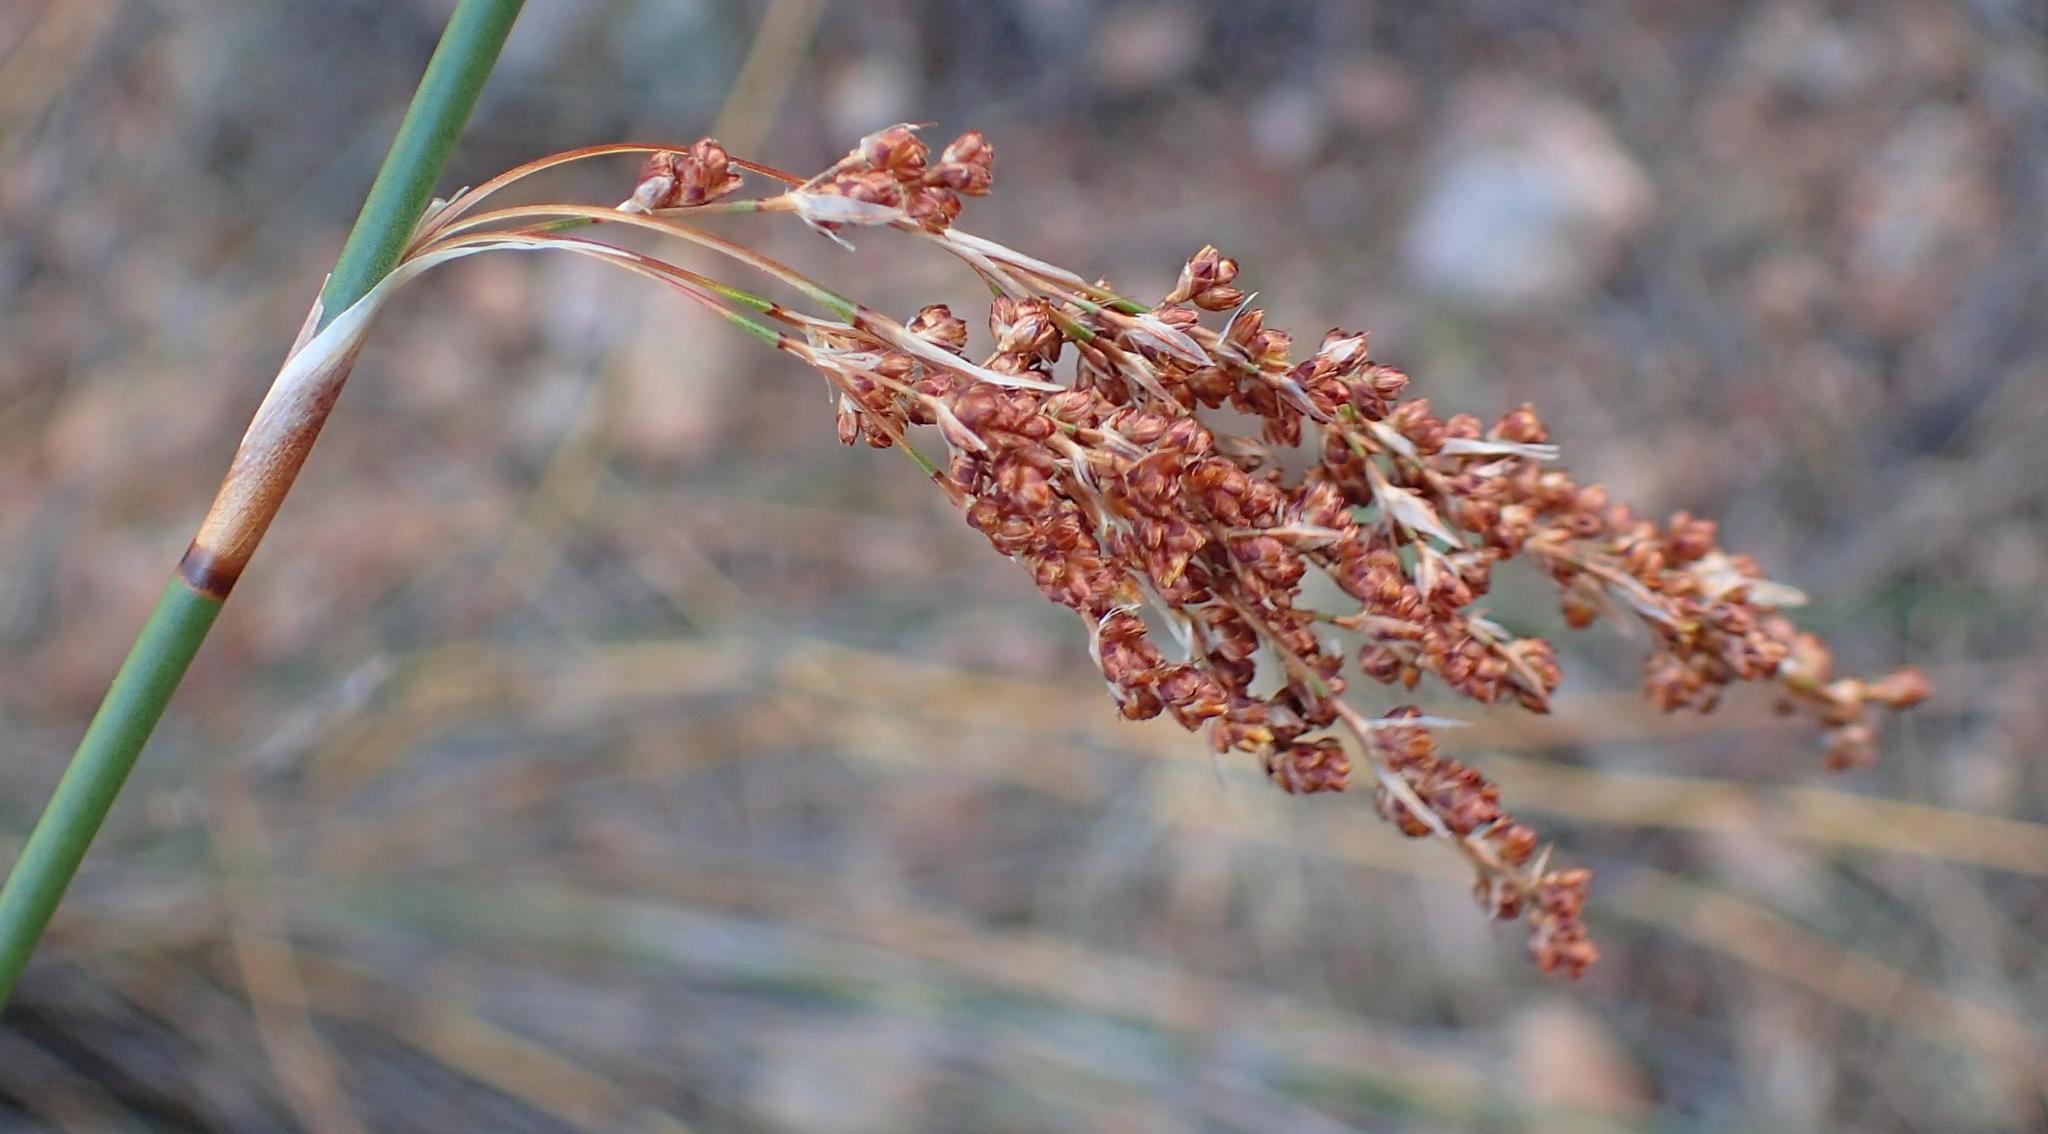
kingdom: Plantae
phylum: Tracheophyta
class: Liliopsida
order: Poales
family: Restionaceae
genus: Rhodocoma
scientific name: Rhodocoma arida
